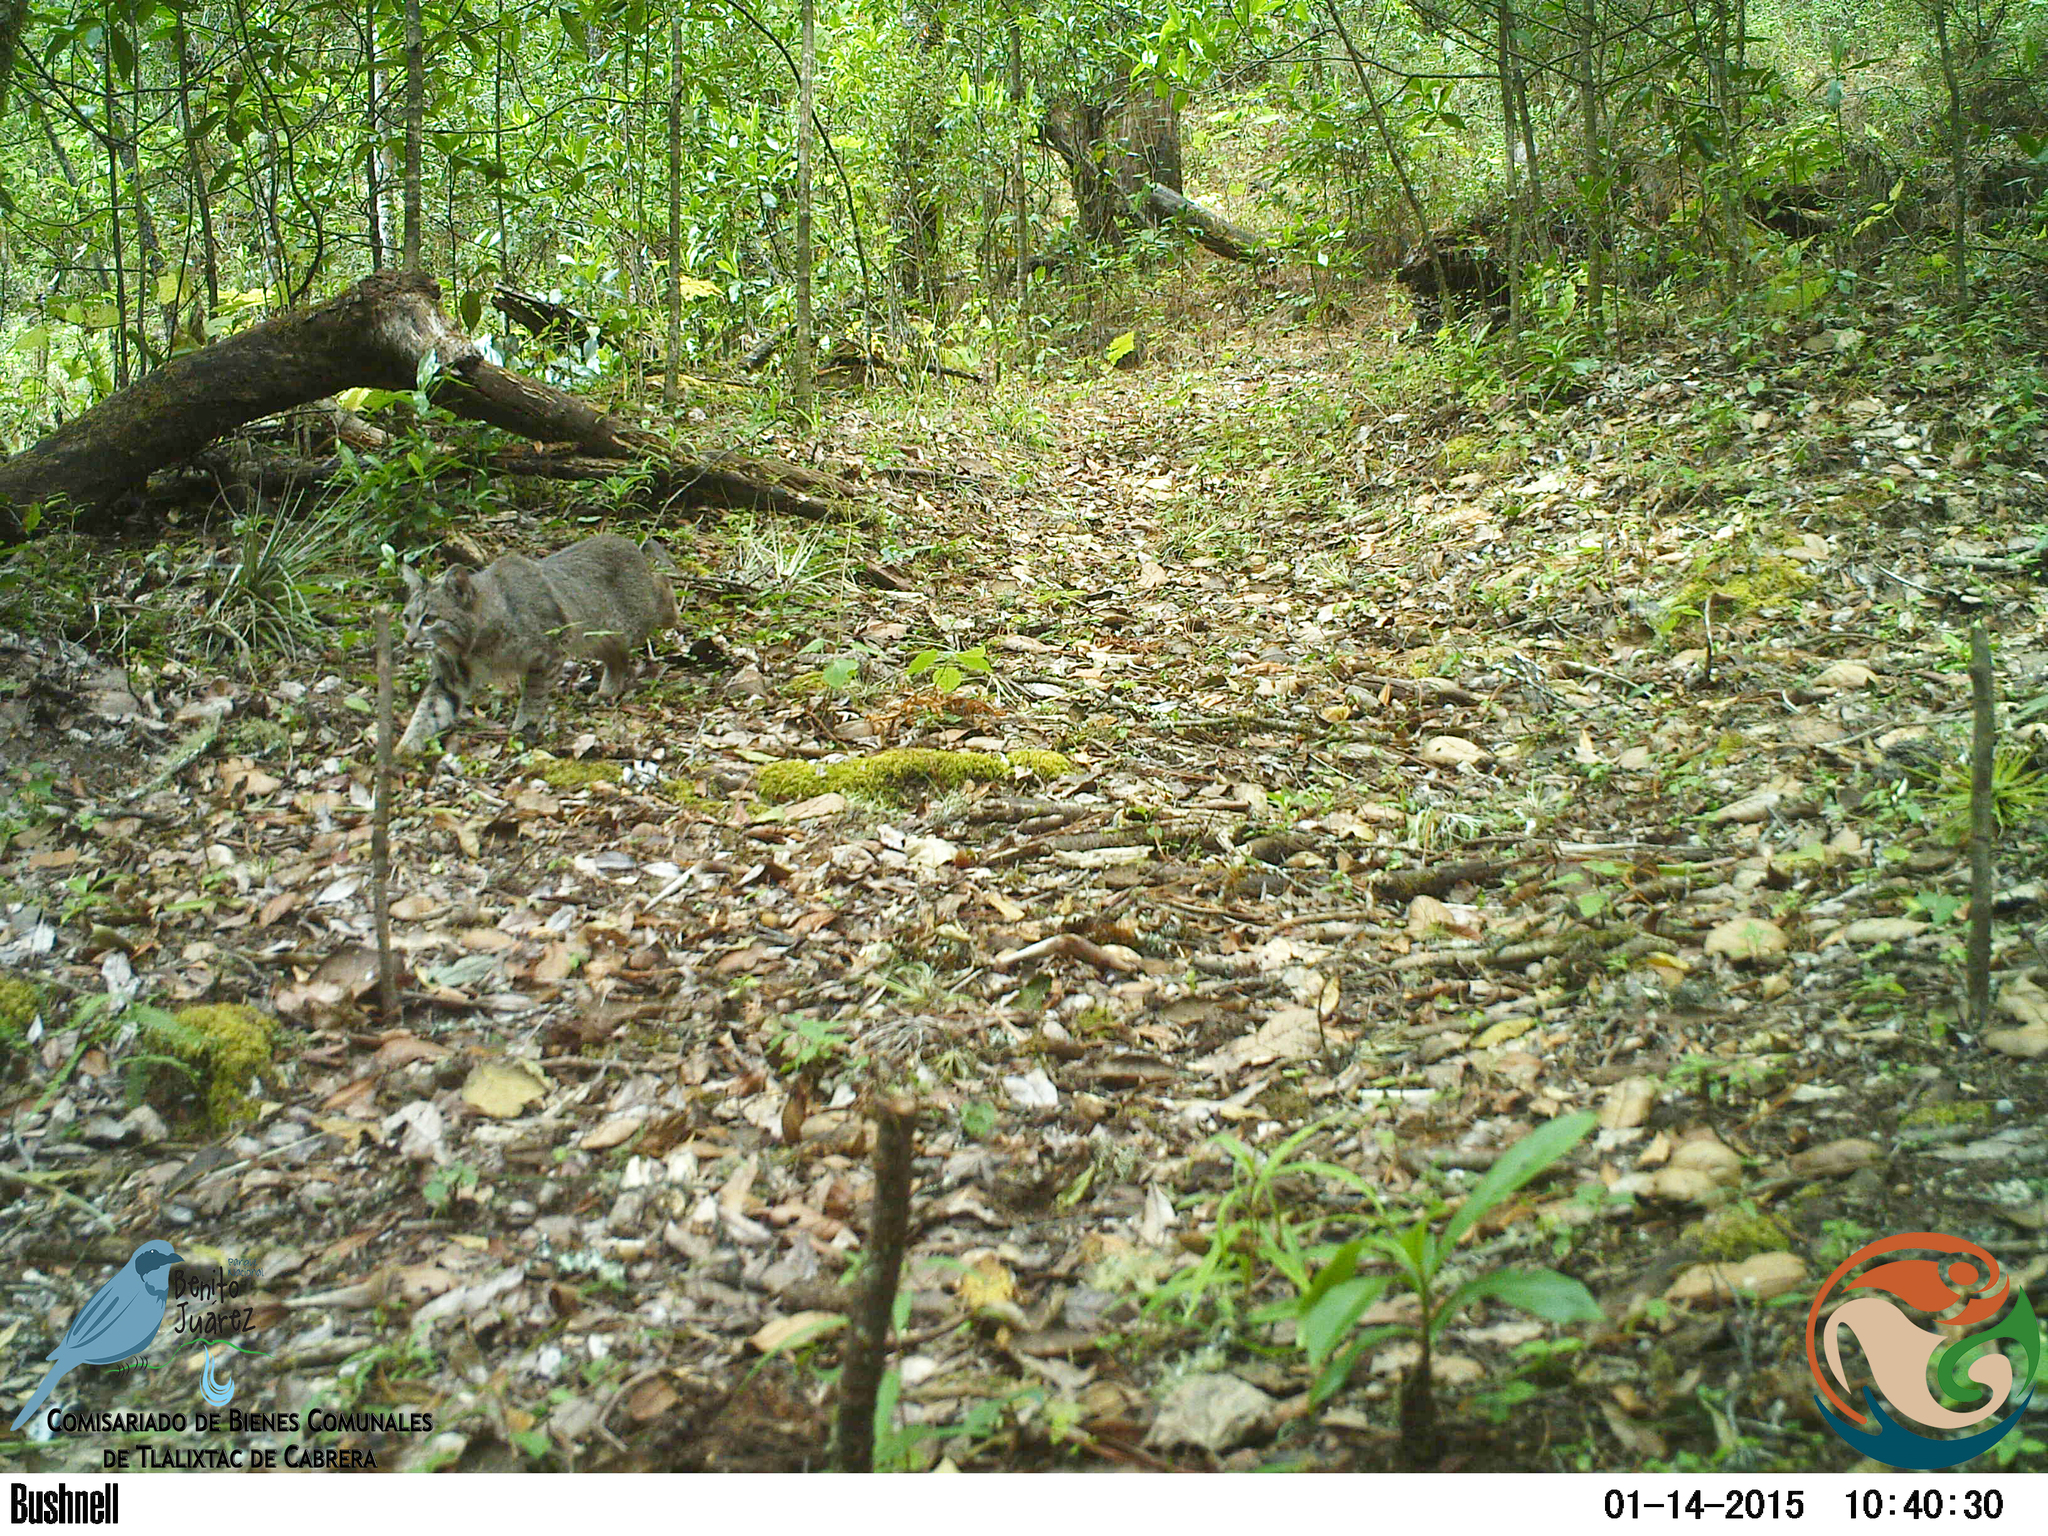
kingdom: Animalia
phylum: Chordata
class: Mammalia
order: Carnivora
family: Felidae
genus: Lynx
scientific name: Lynx rufus
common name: Bobcat
